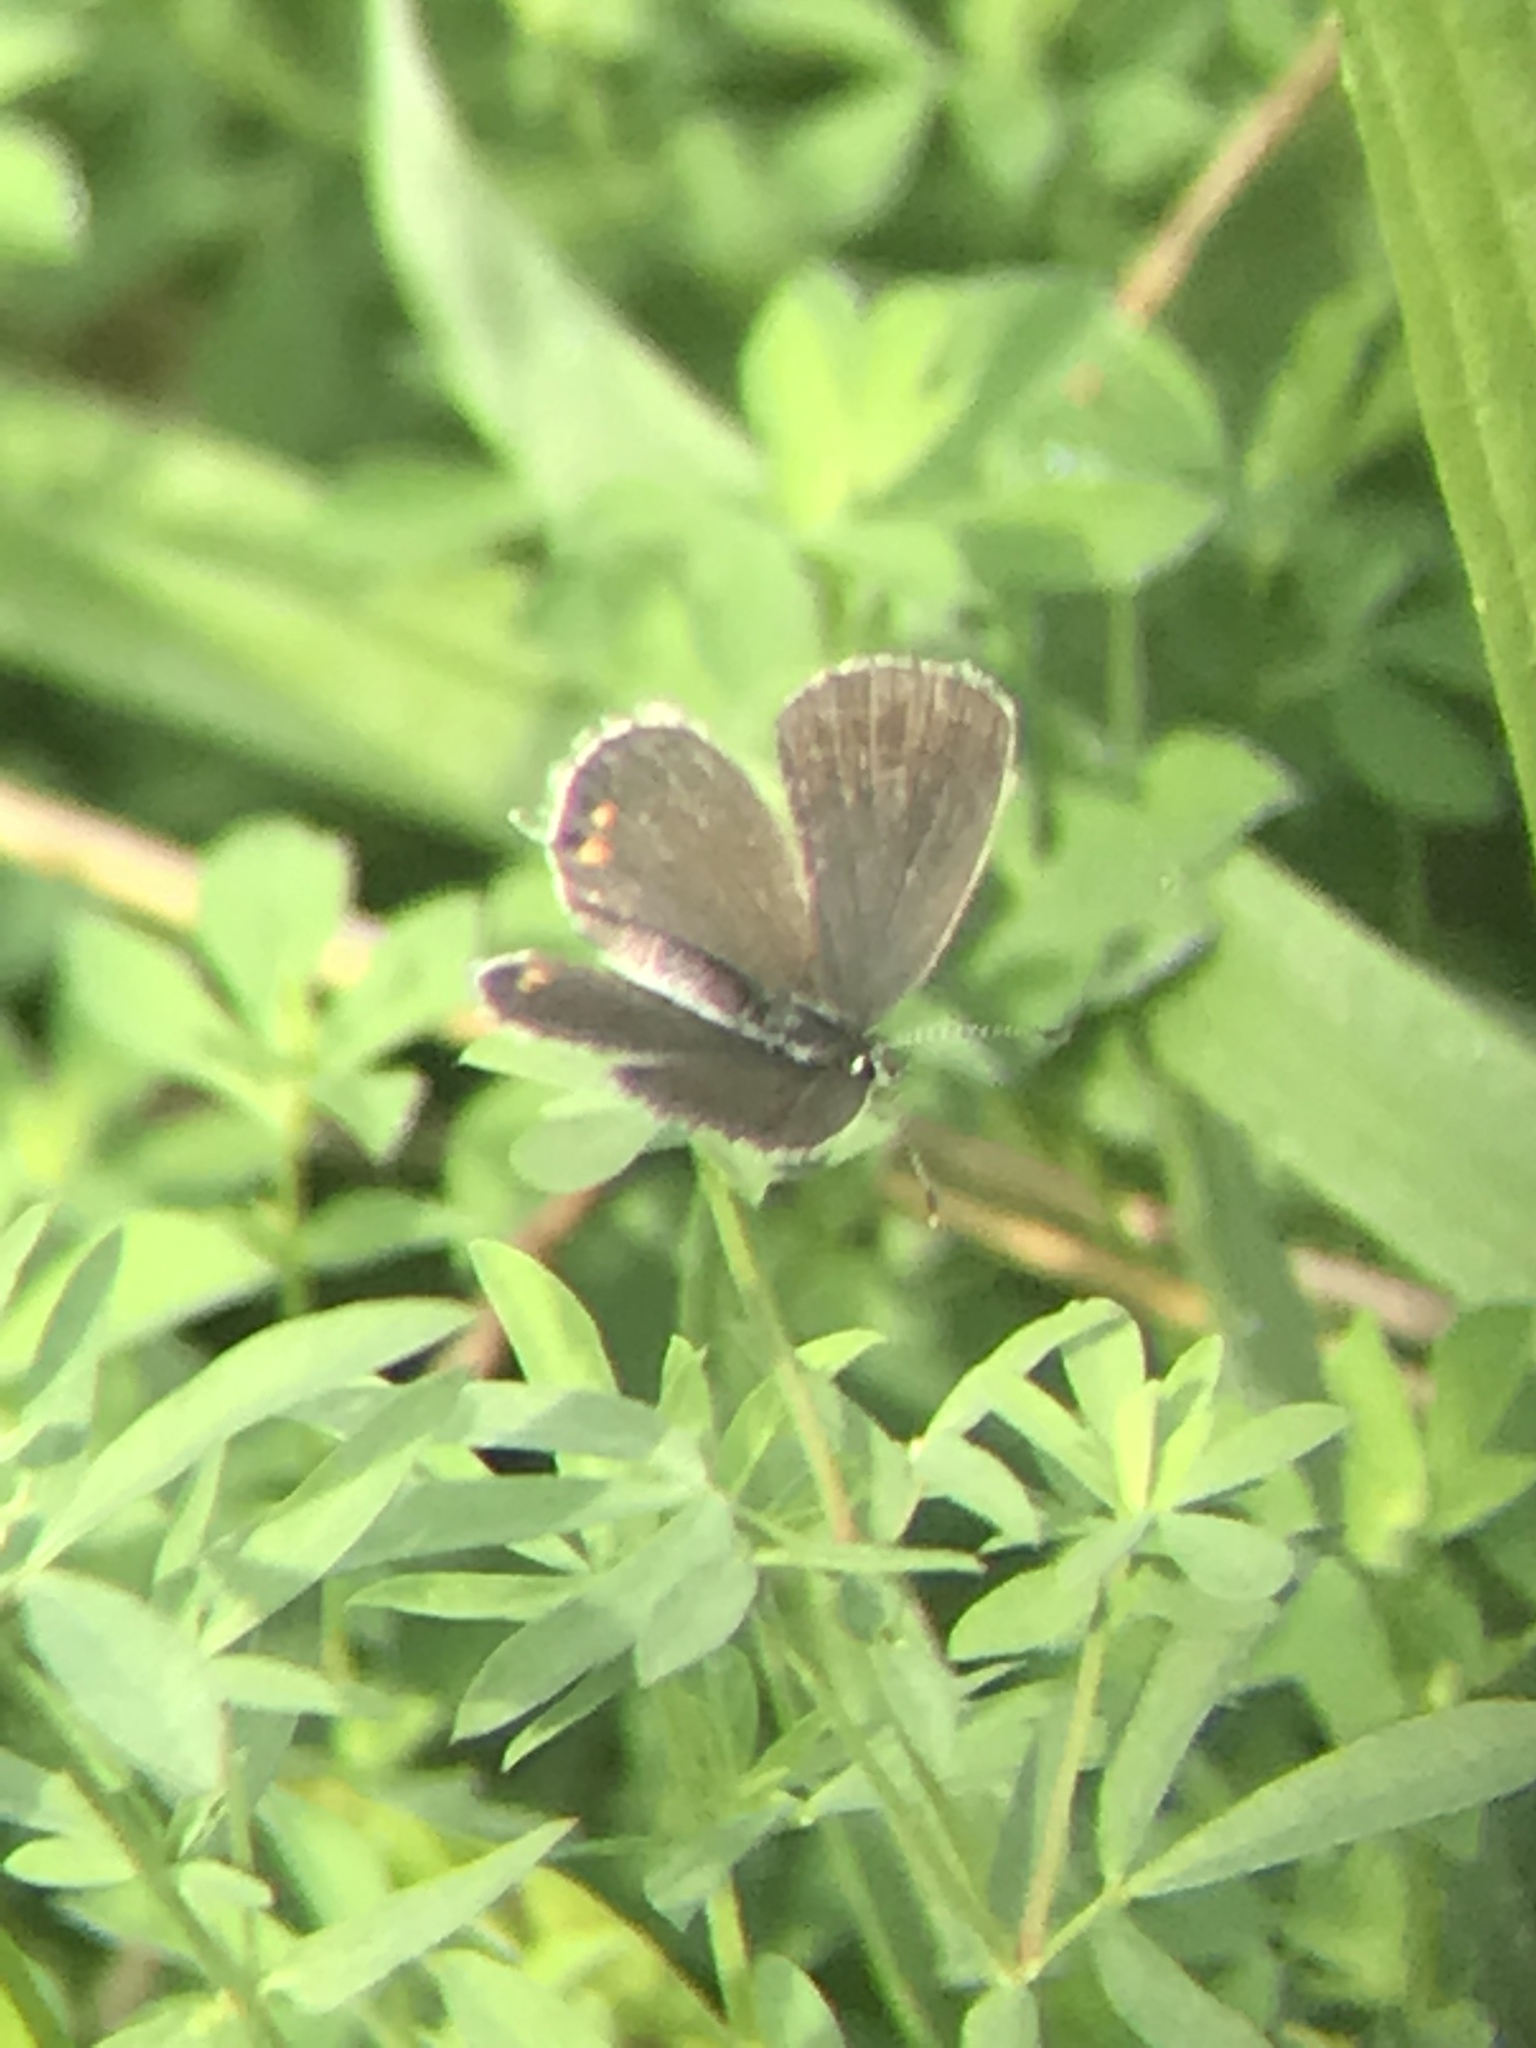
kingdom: Animalia
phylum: Arthropoda
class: Insecta
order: Lepidoptera
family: Lycaenidae
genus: Elkalyce
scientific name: Elkalyce comyntas
